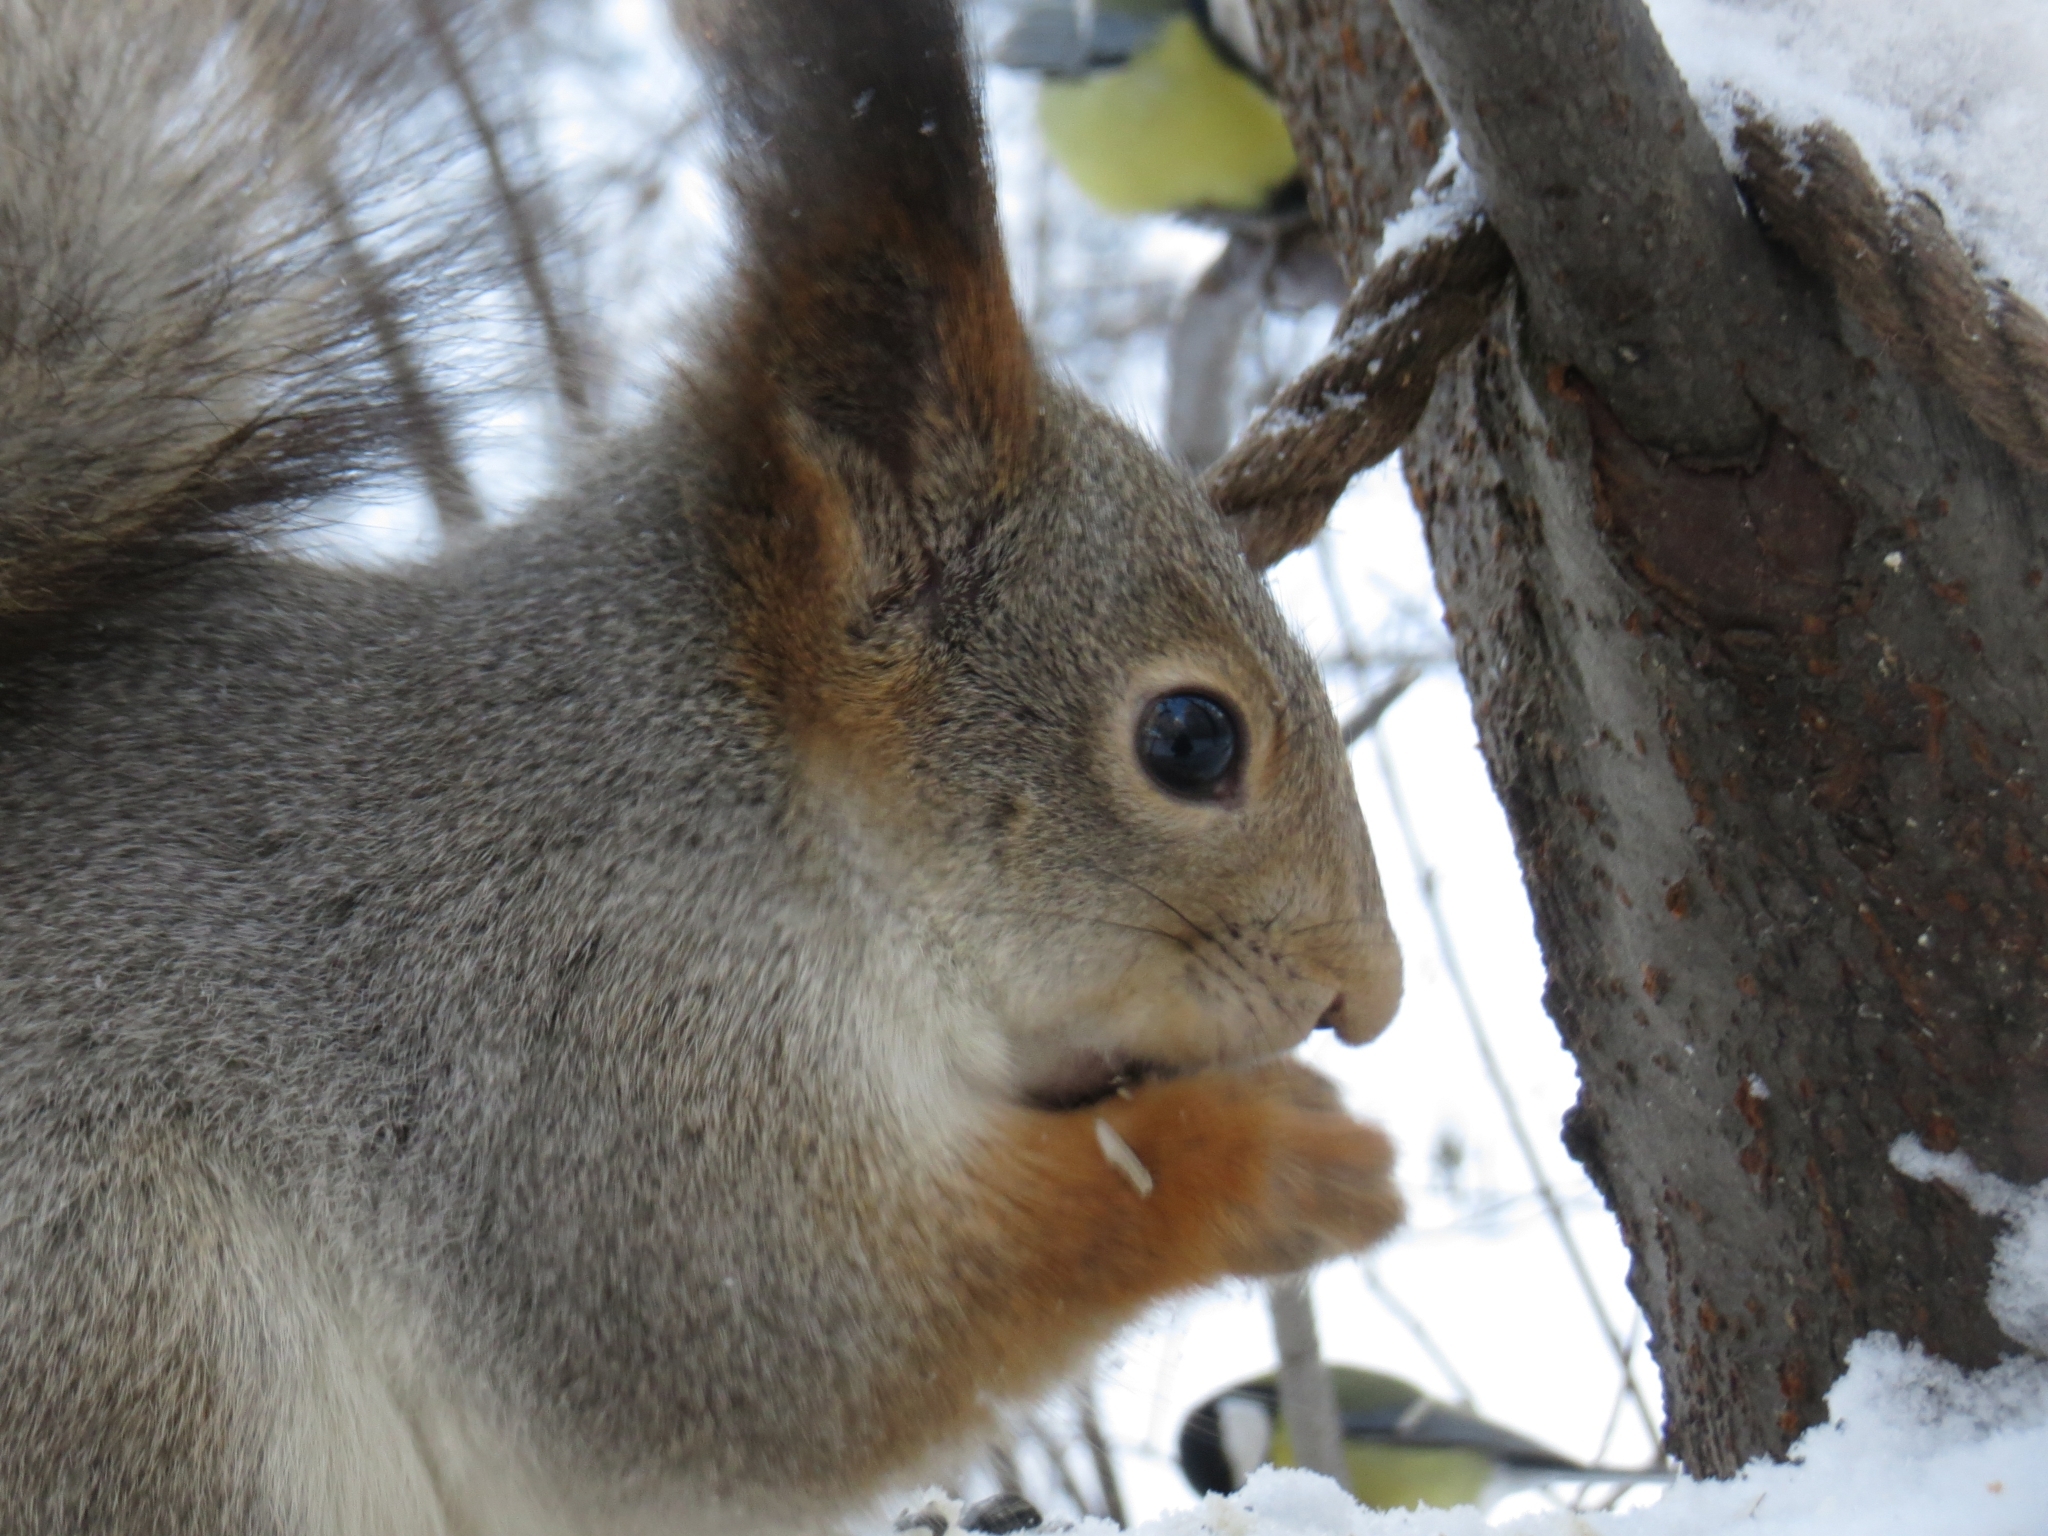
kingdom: Animalia
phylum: Chordata
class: Mammalia
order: Rodentia
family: Sciuridae
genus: Sciurus
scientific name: Sciurus vulgaris
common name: Eurasian red squirrel
